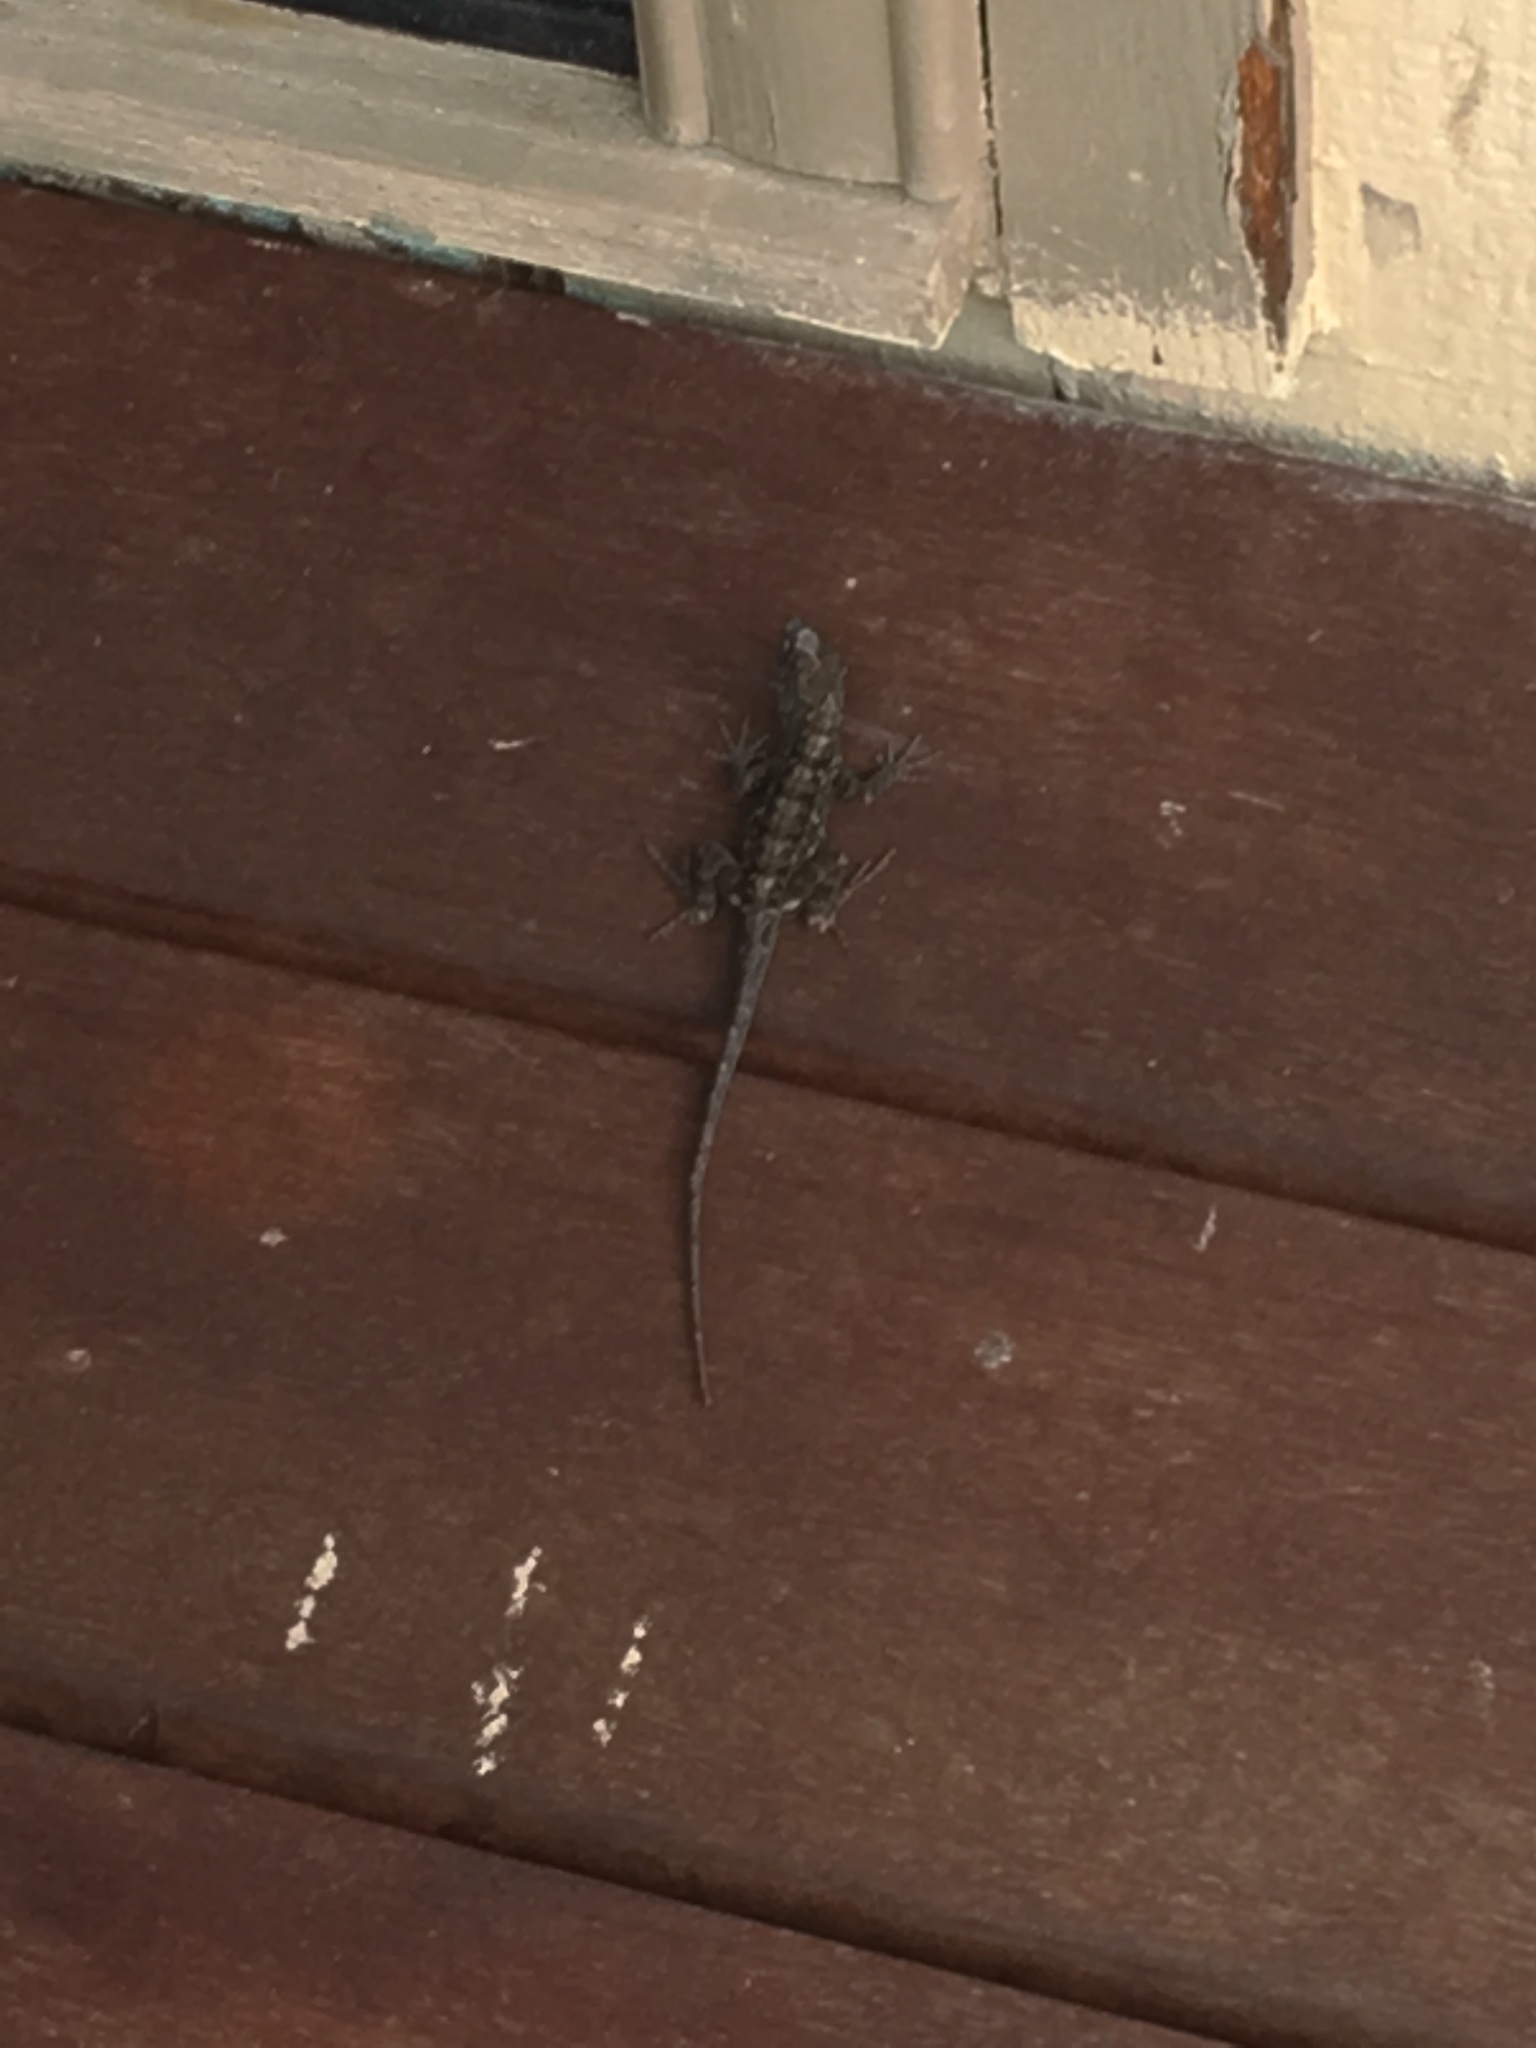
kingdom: Animalia
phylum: Chordata
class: Squamata
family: Dactyloidae
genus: Anolis
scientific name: Anolis sagrei
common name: Brown anole
